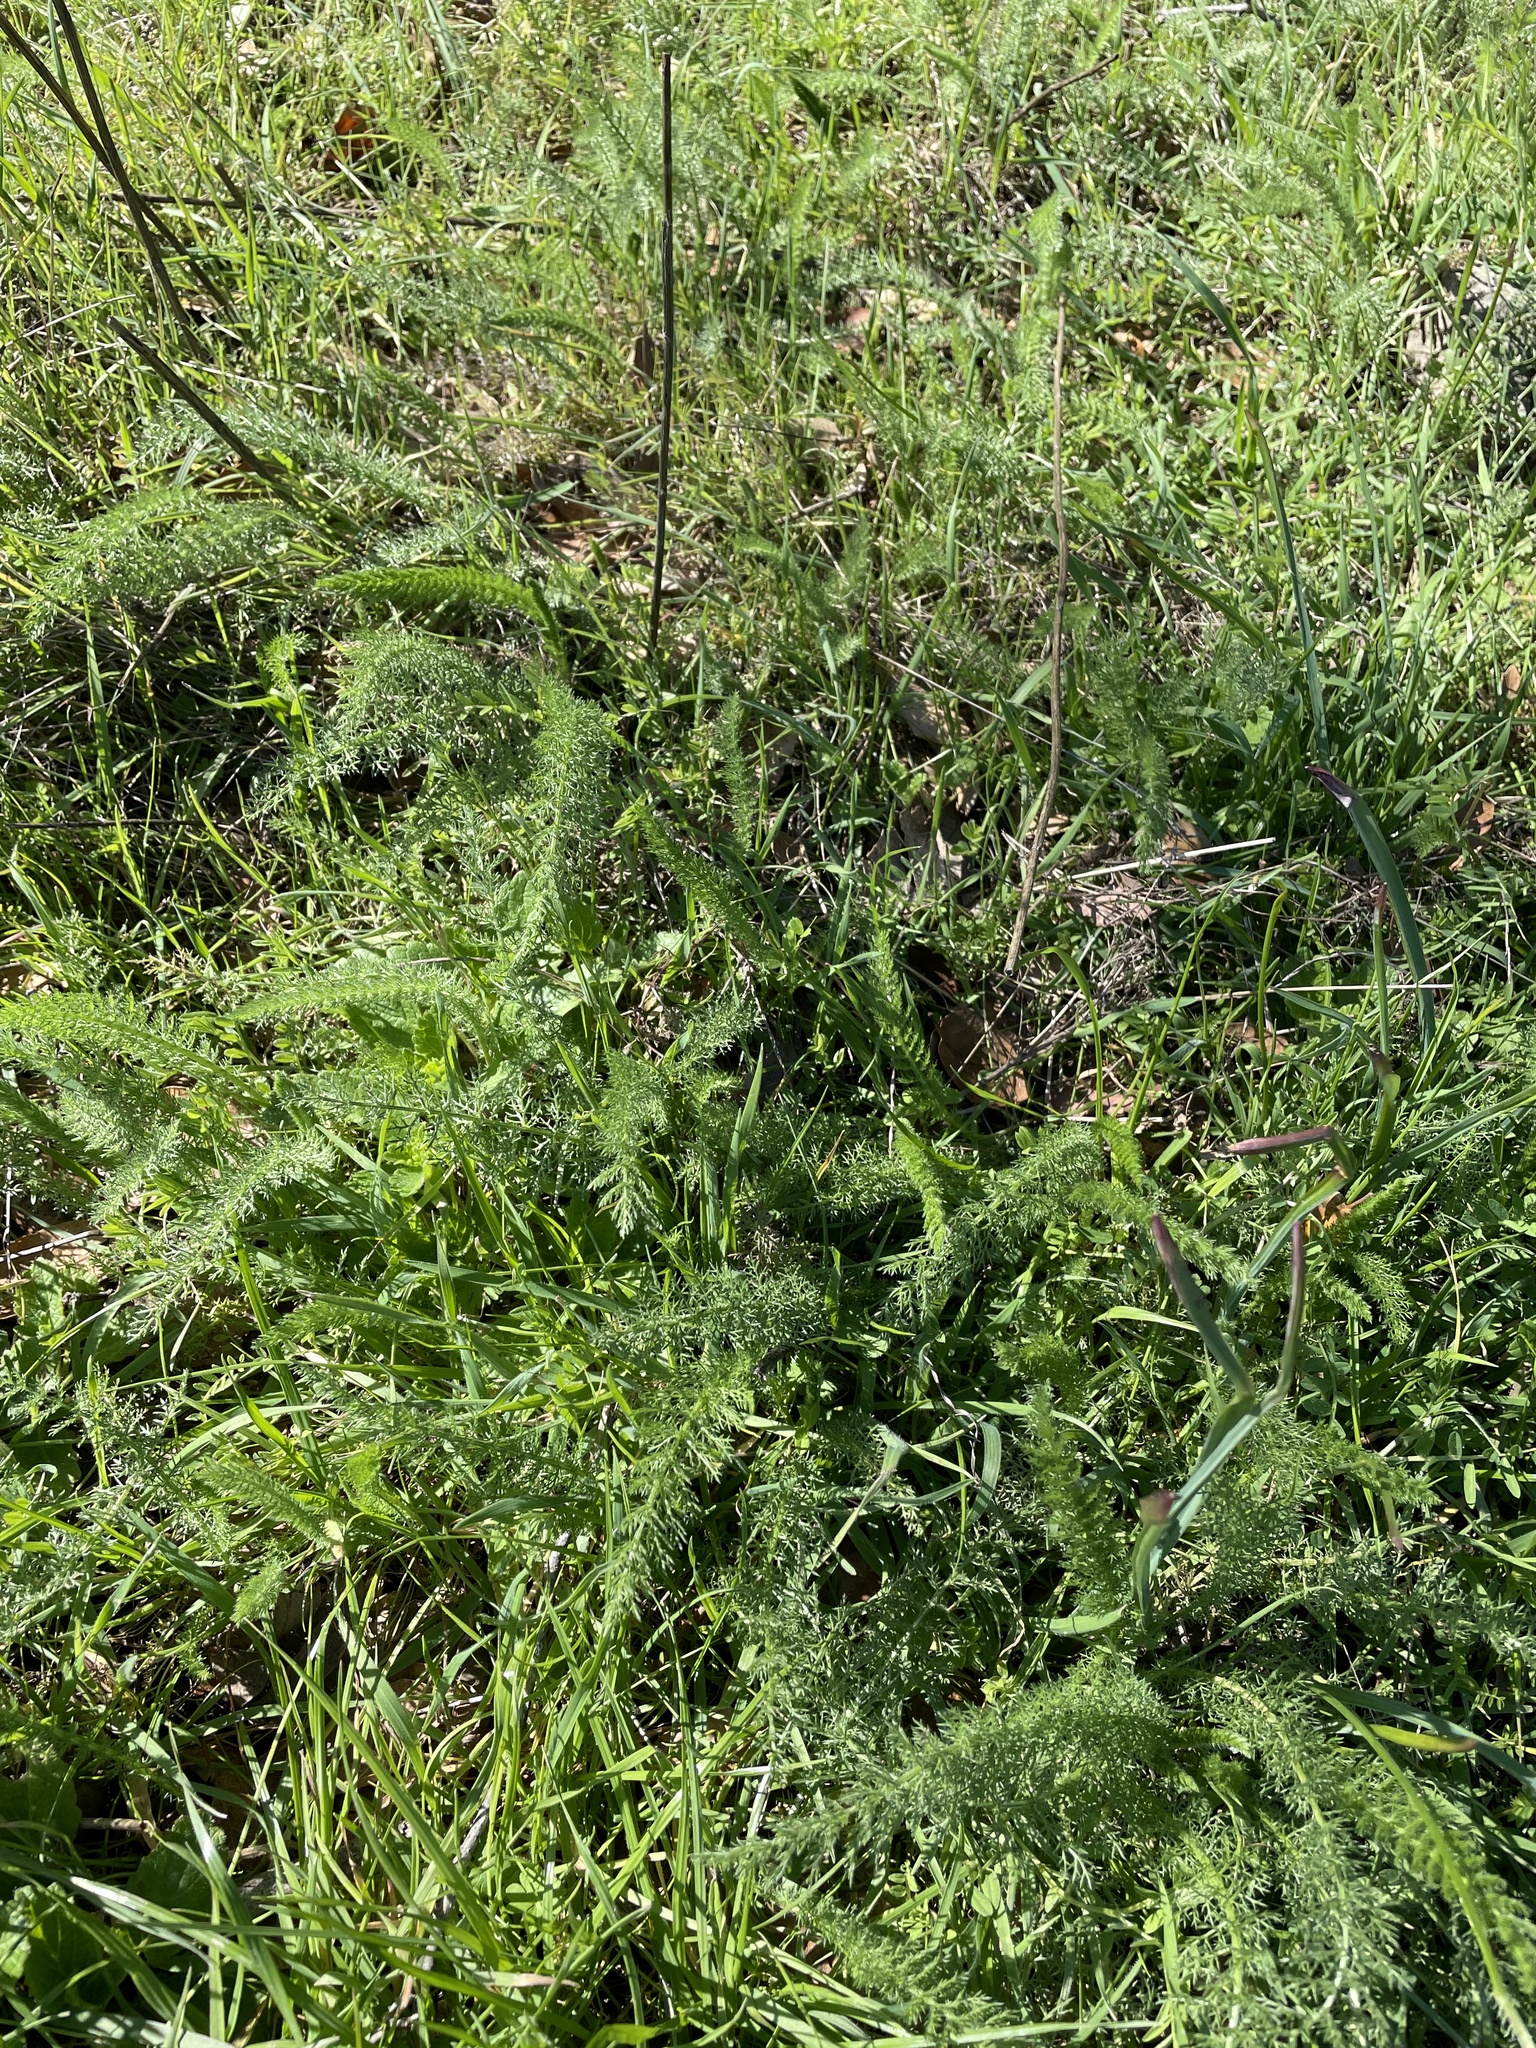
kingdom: Plantae
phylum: Tracheophyta
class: Magnoliopsida
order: Asterales
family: Asteraceae
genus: Achillea
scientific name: Achillea millefolium
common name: Yarrow
